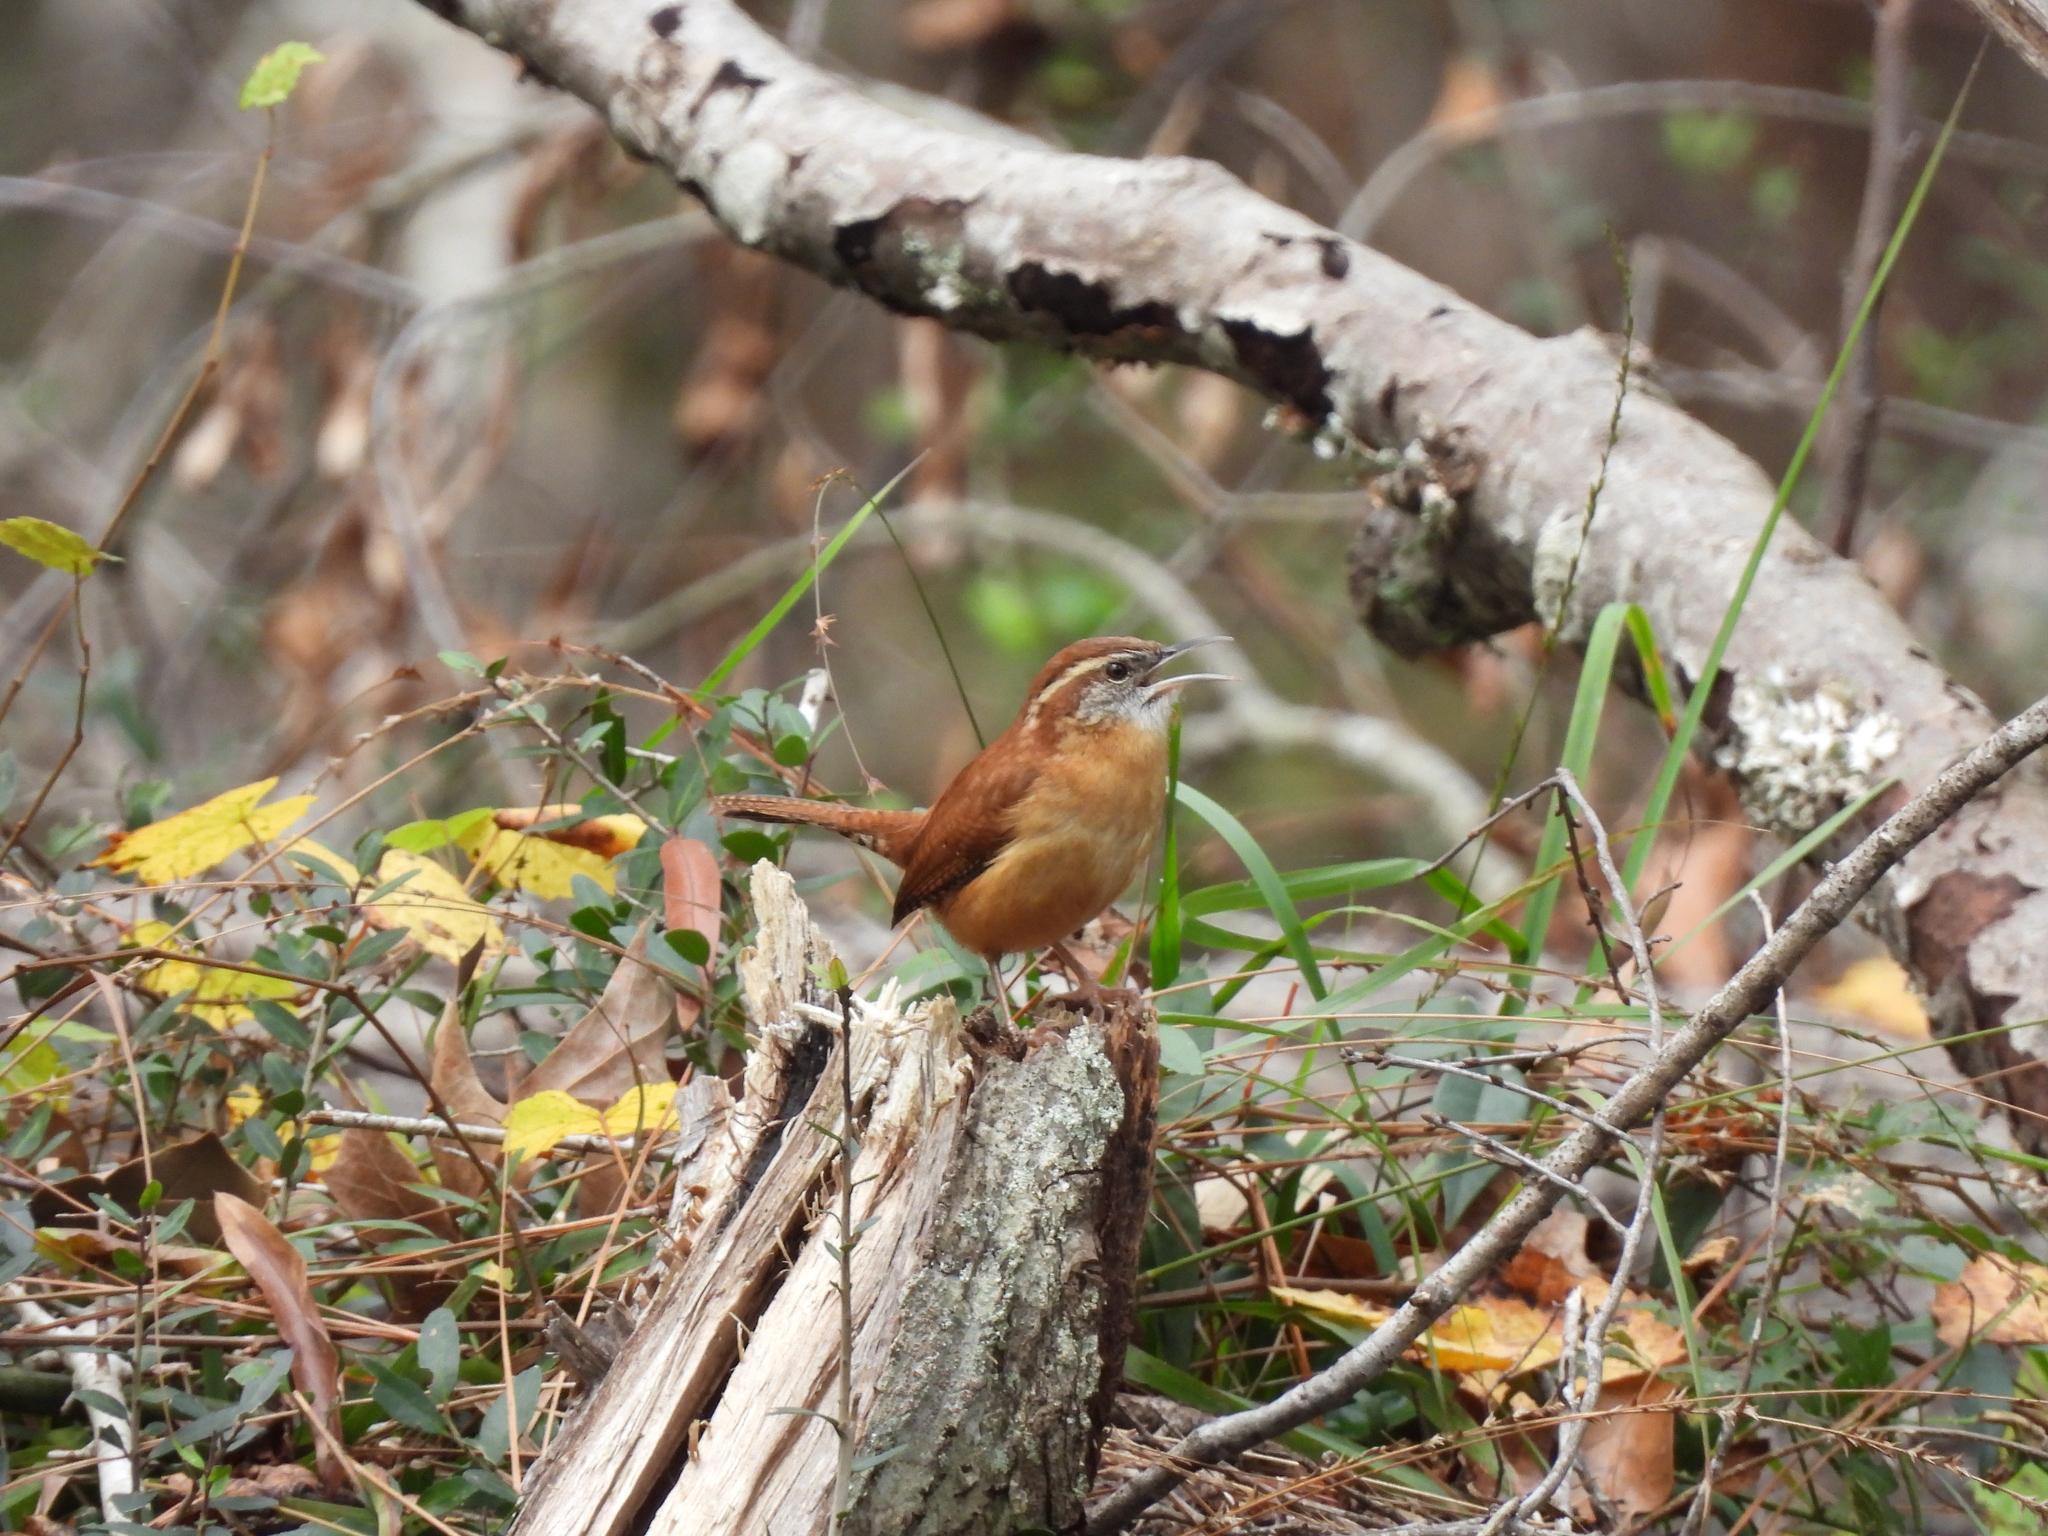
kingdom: Animalia
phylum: Chordata
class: Aves
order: Passeriformes
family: Troglodytidae
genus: Thryothorus
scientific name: Thryothorus ludovicianus
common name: Carolina wren
